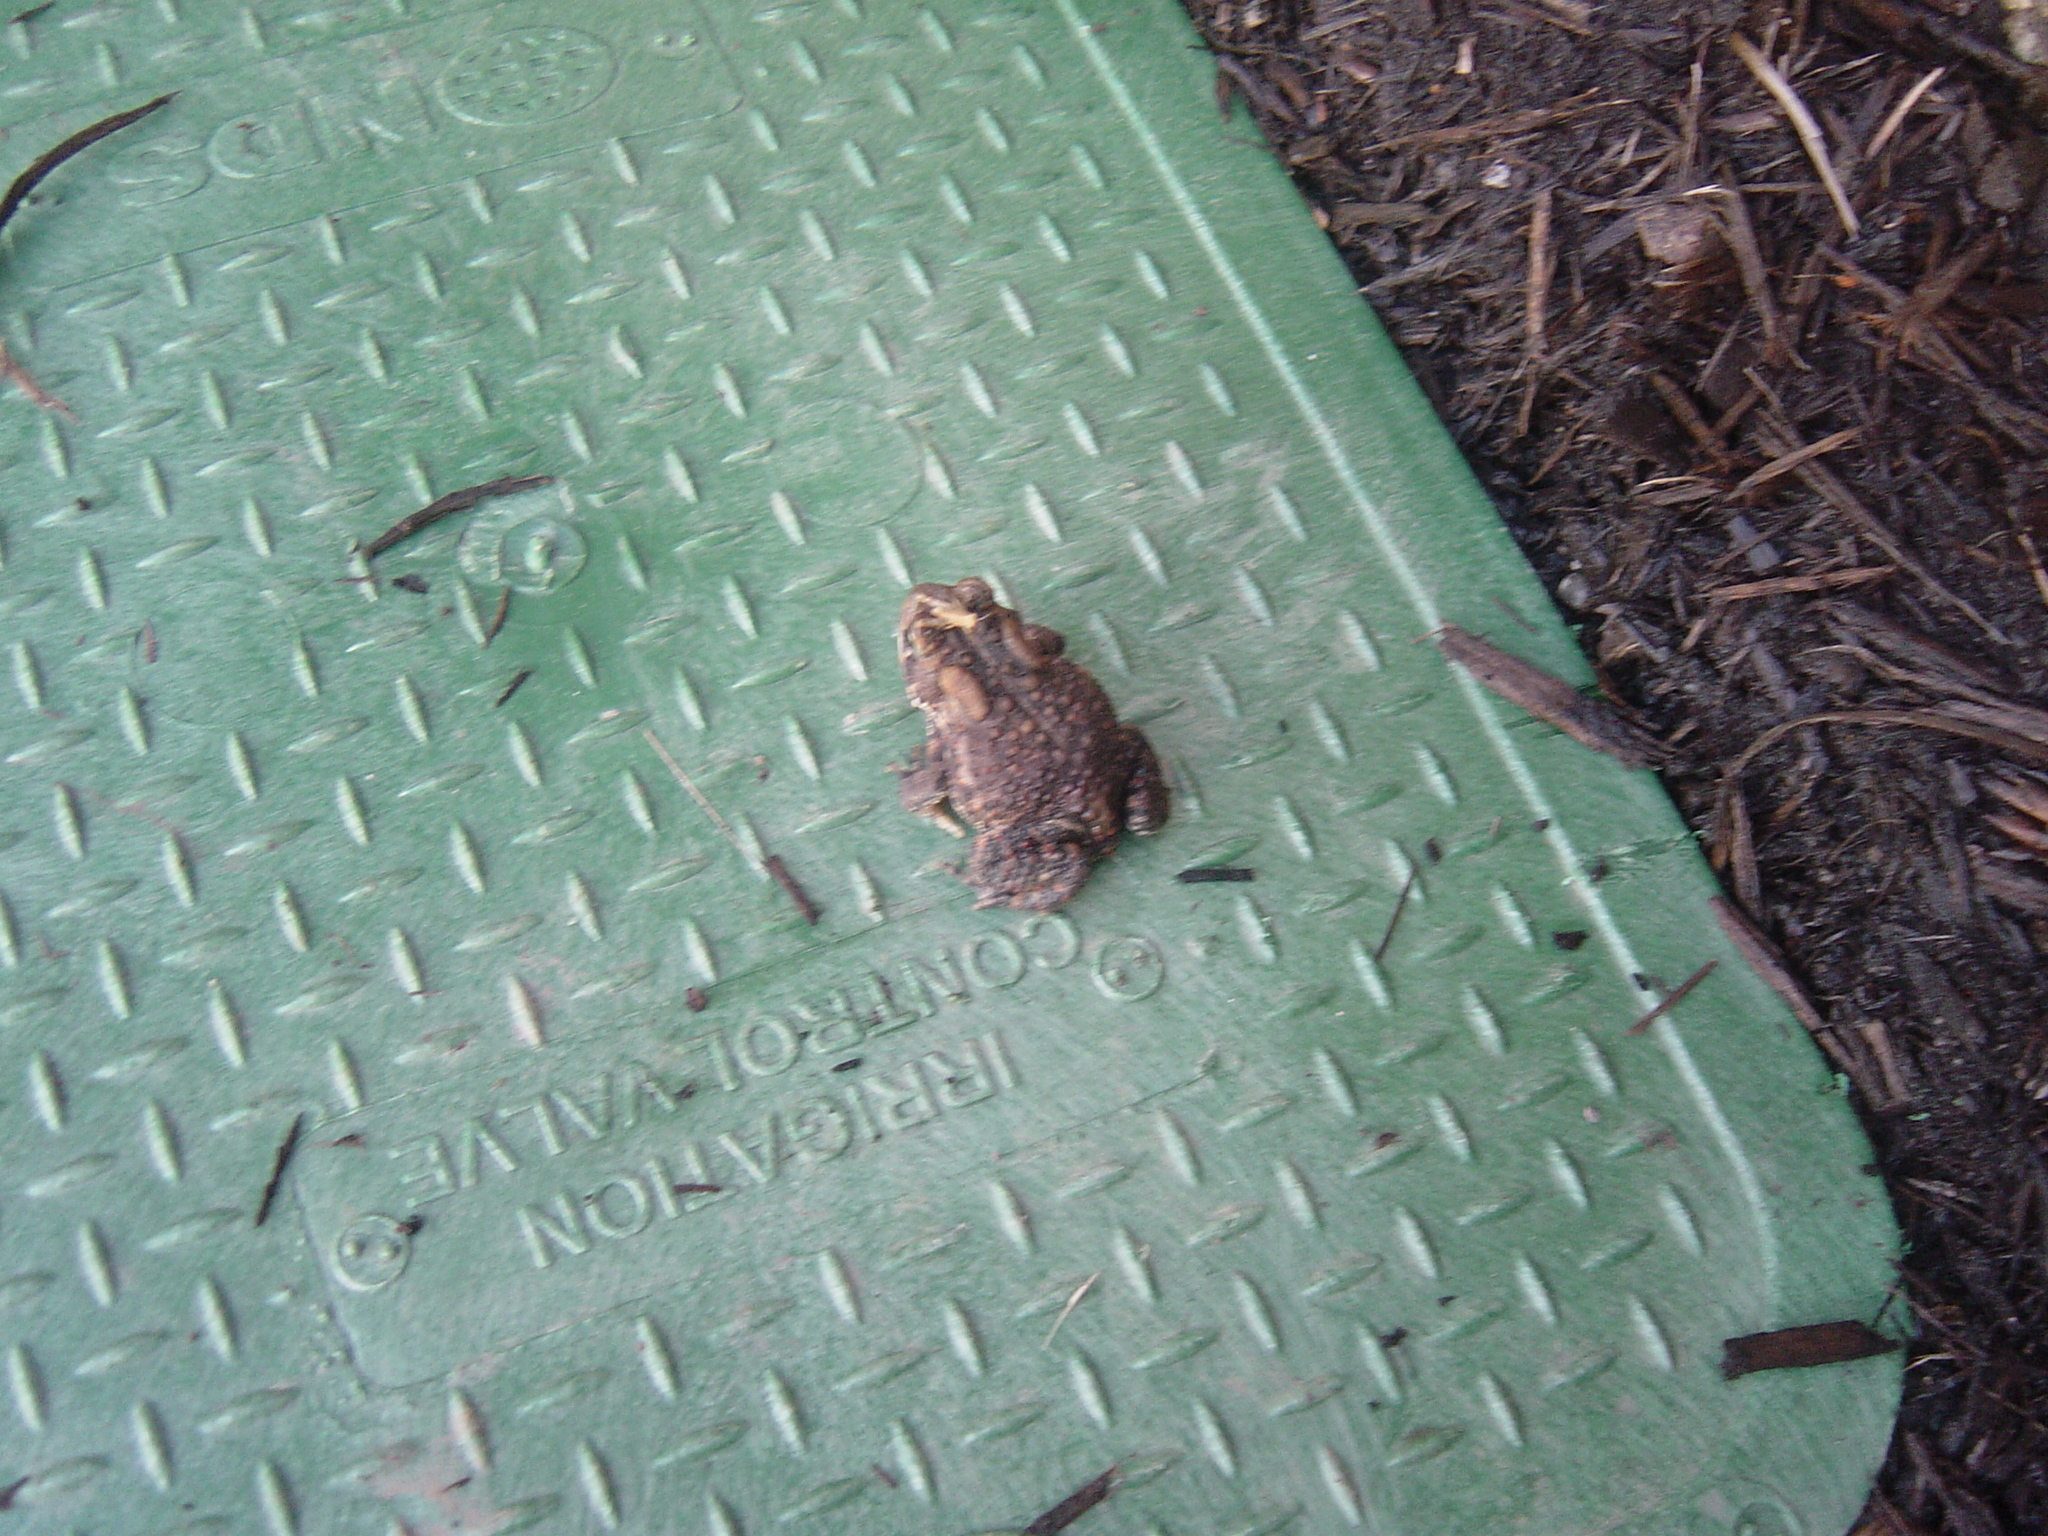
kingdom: Animalia
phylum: Chordata
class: Amphibia
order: Anura
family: Bufonidae
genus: Anaxyrus
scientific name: Anaxyrus americanus
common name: American toad
